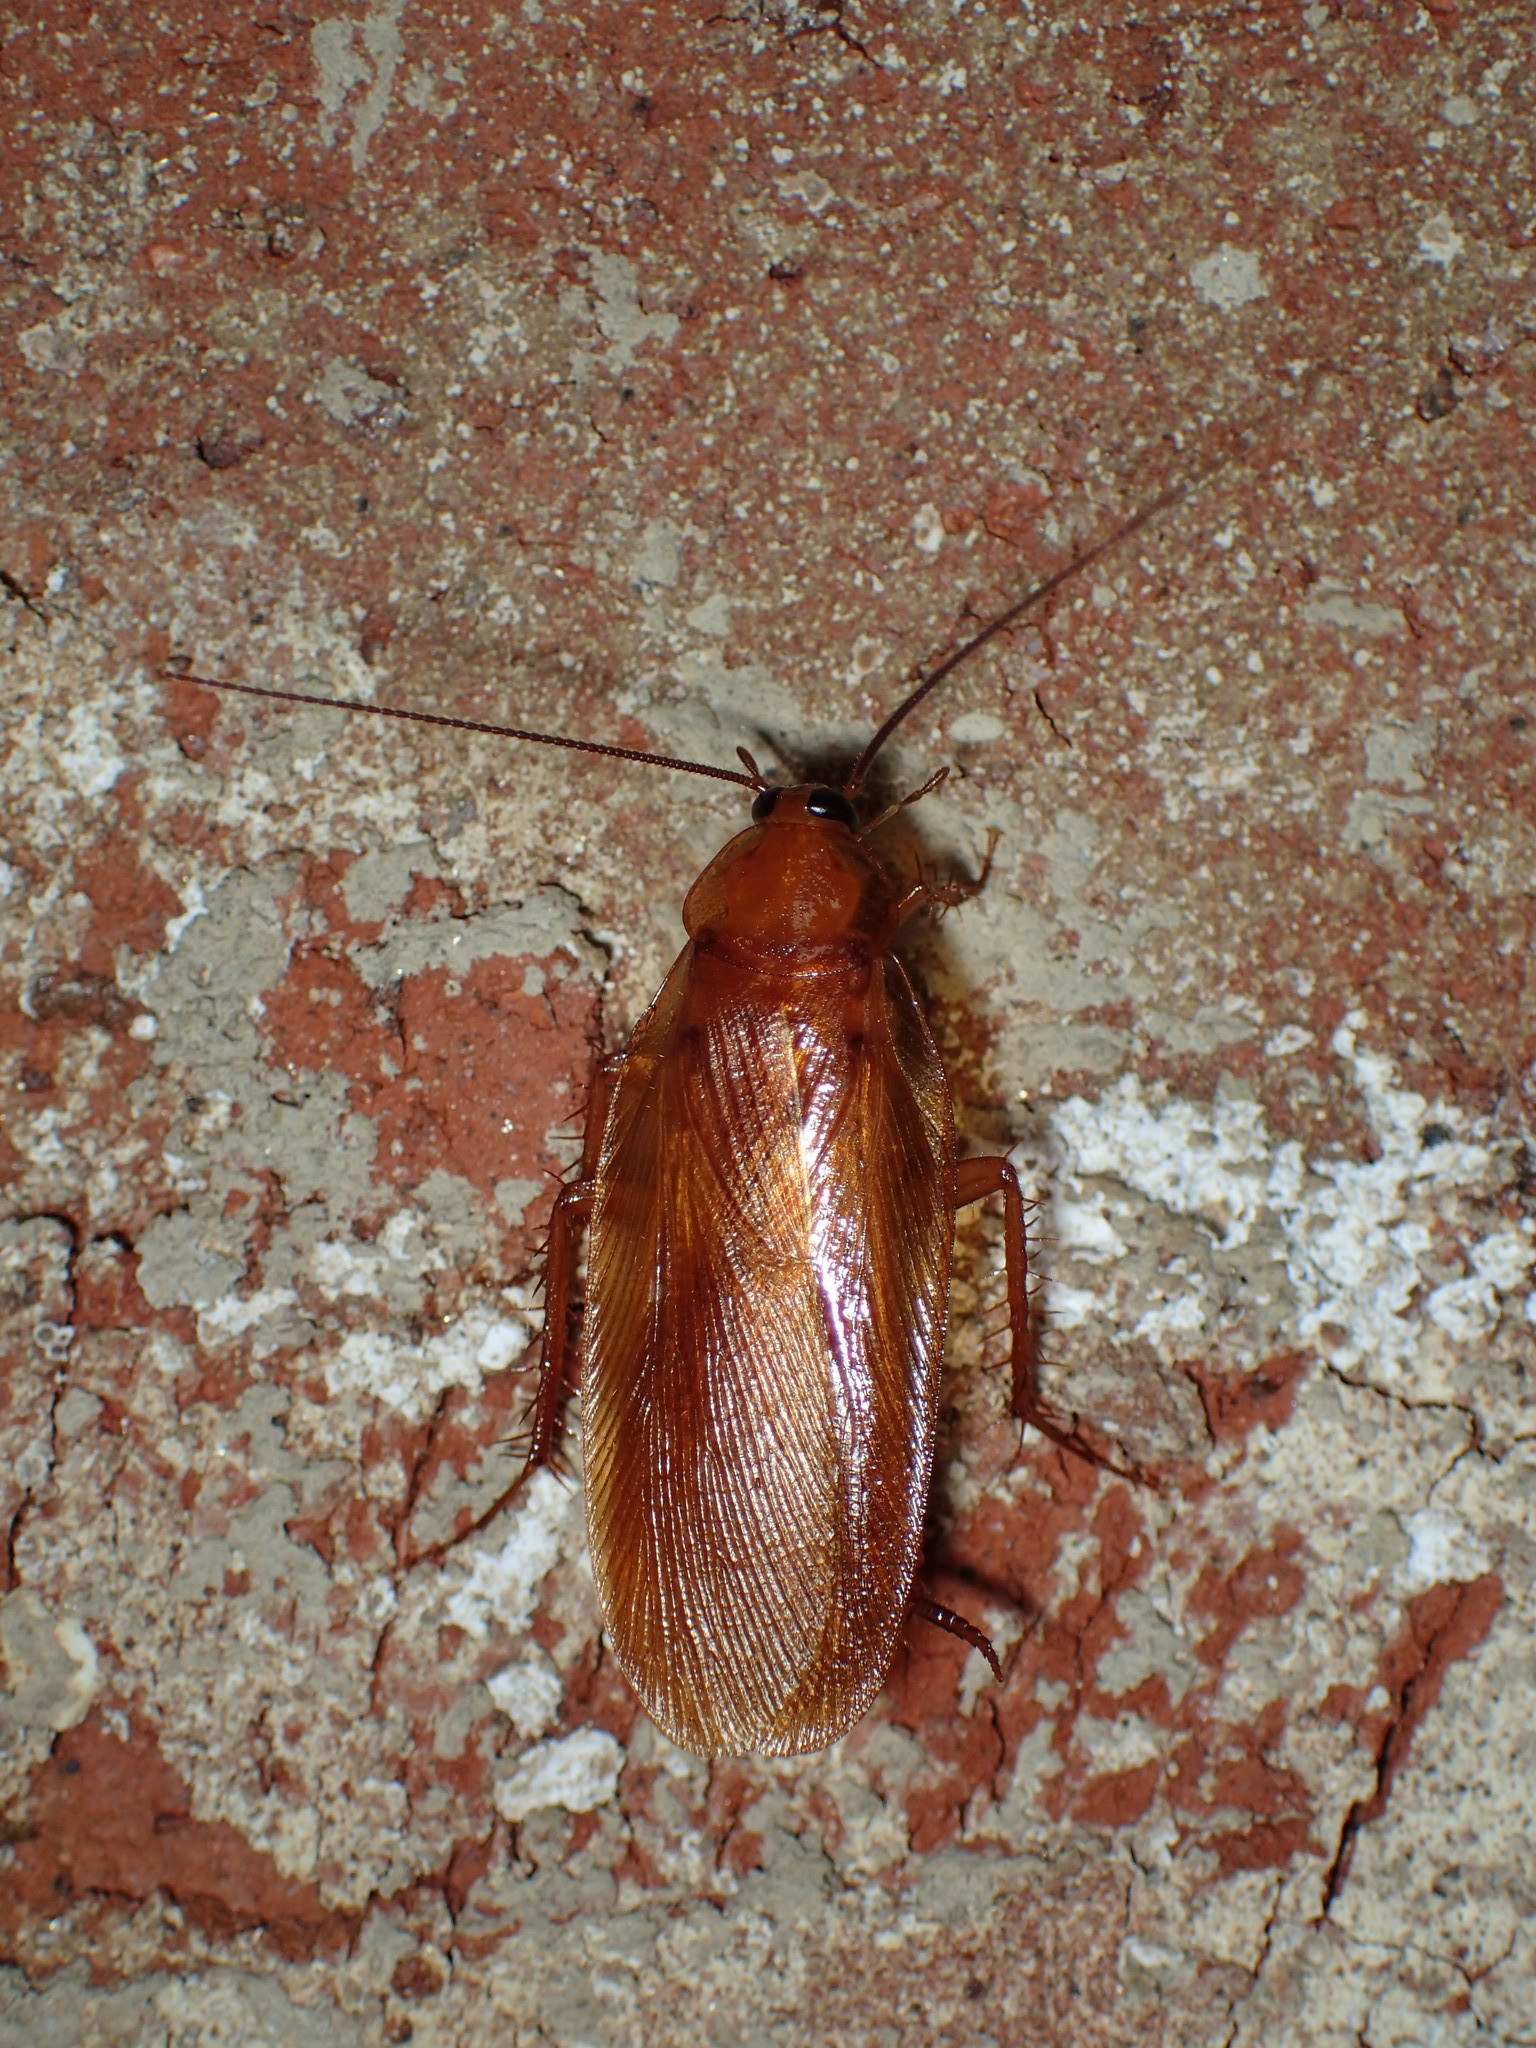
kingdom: Animalia
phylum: Arthropoda
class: Insecta
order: Blattodea
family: Ectobiidae
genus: Parcoblatta
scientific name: Parcoblatta uhleriana
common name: Uhler's wood cockroach
